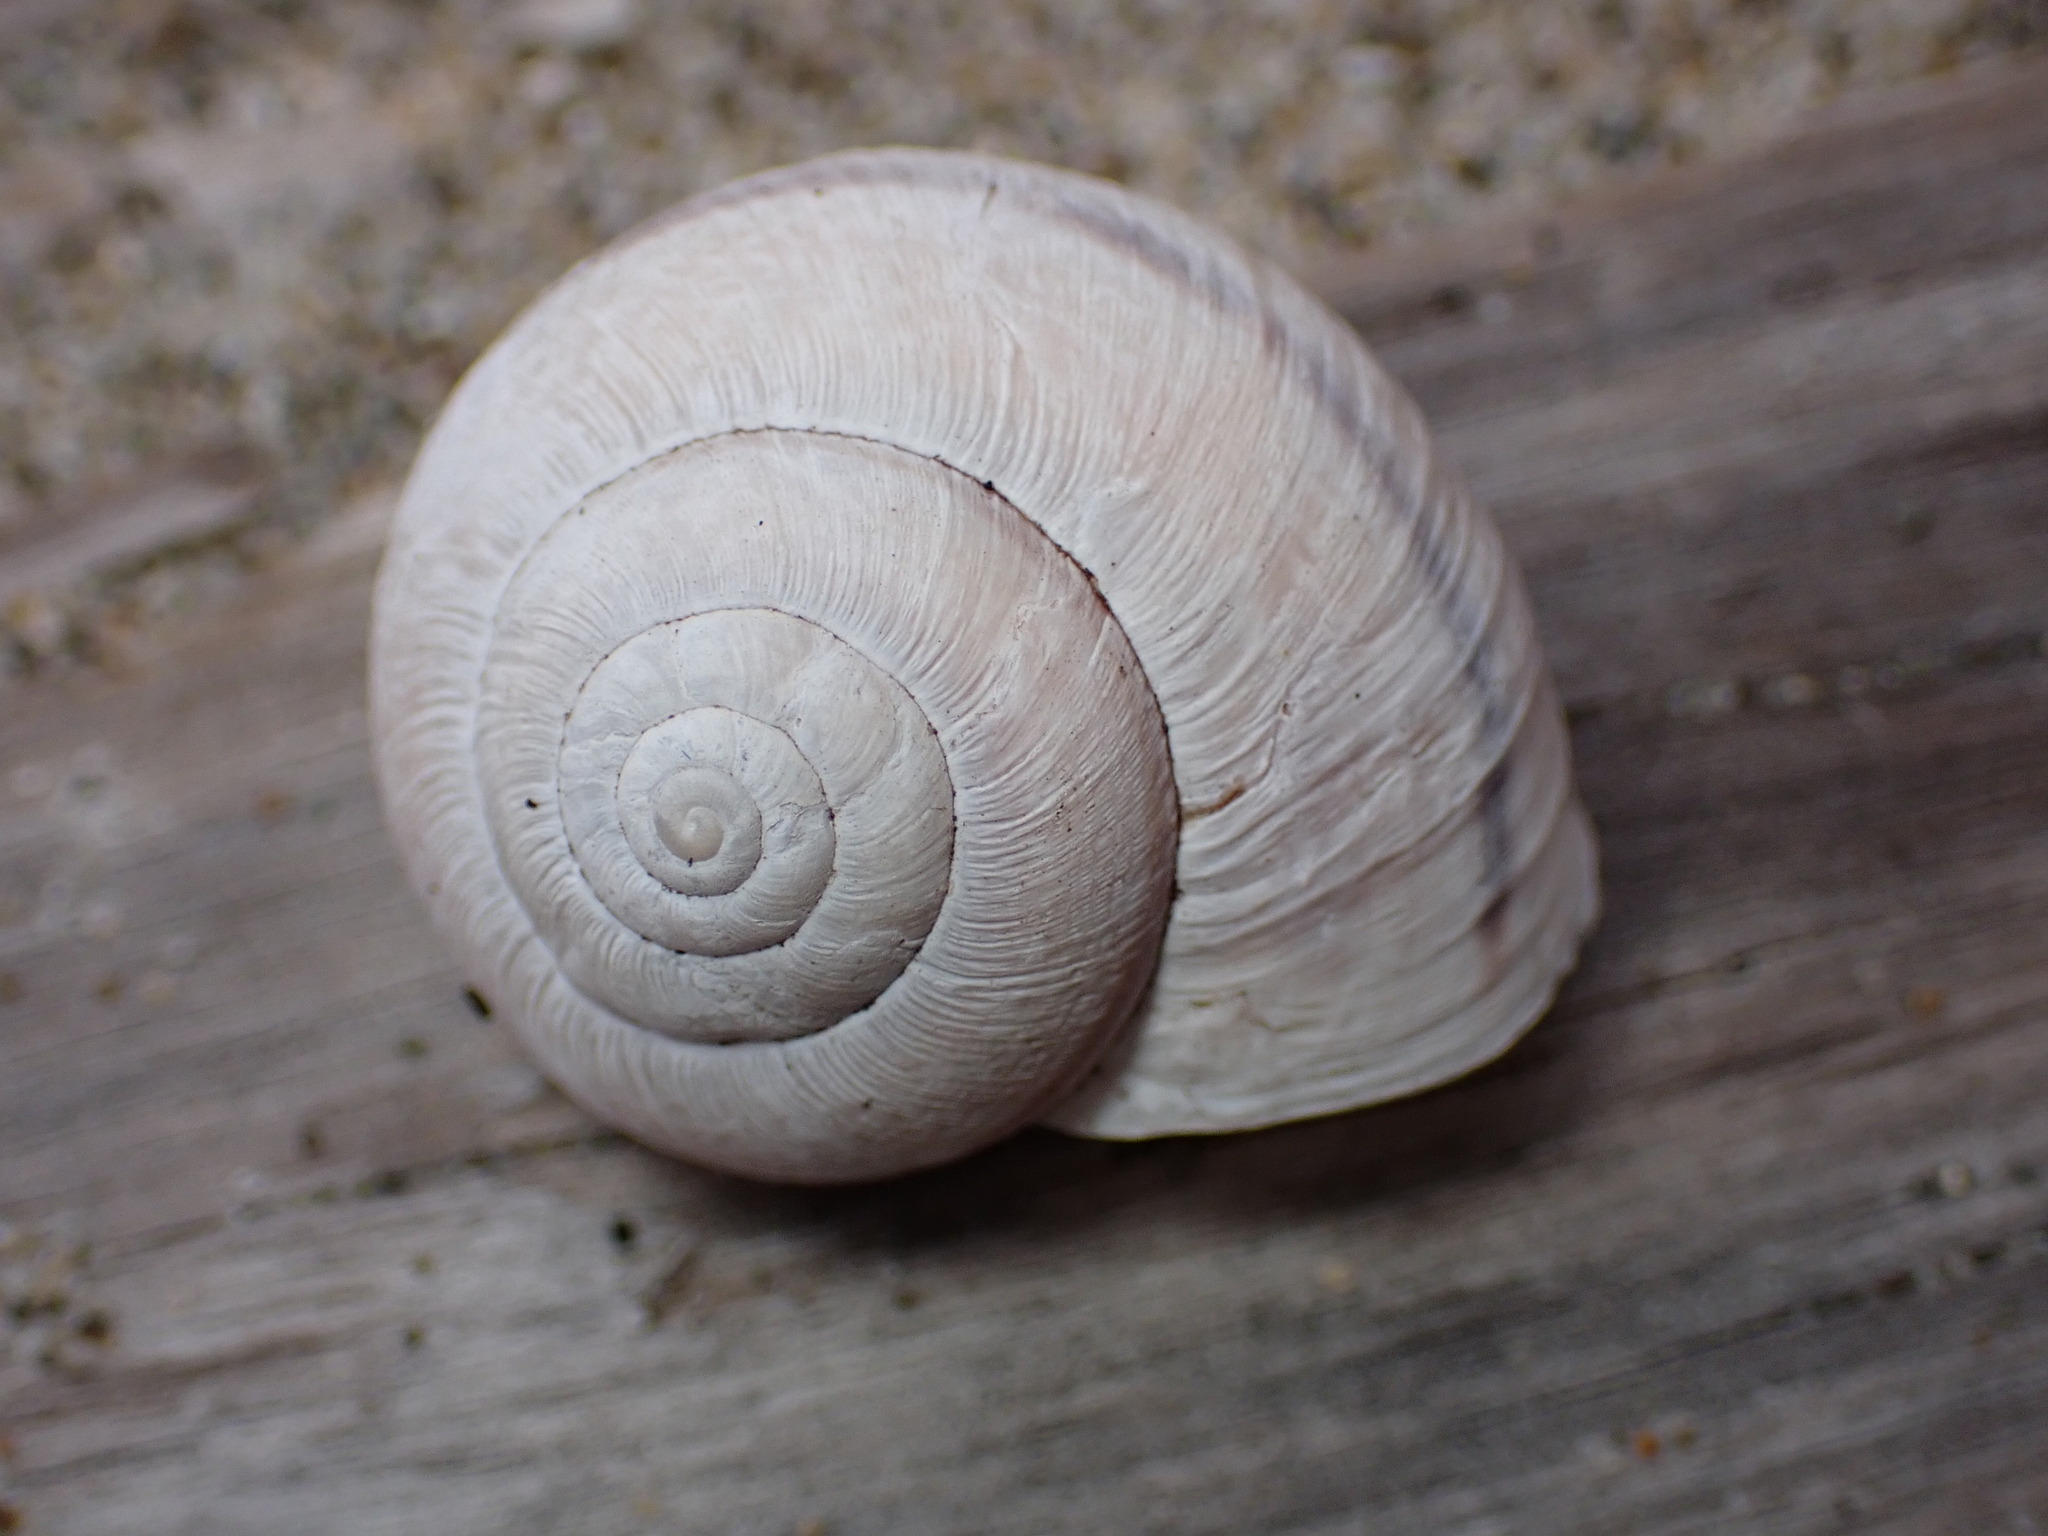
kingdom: Animalia
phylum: Mollusca
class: Gastropoda
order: Stylommatophora
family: Xanthonychidae
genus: Noyo
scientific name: Noyo intersessa
